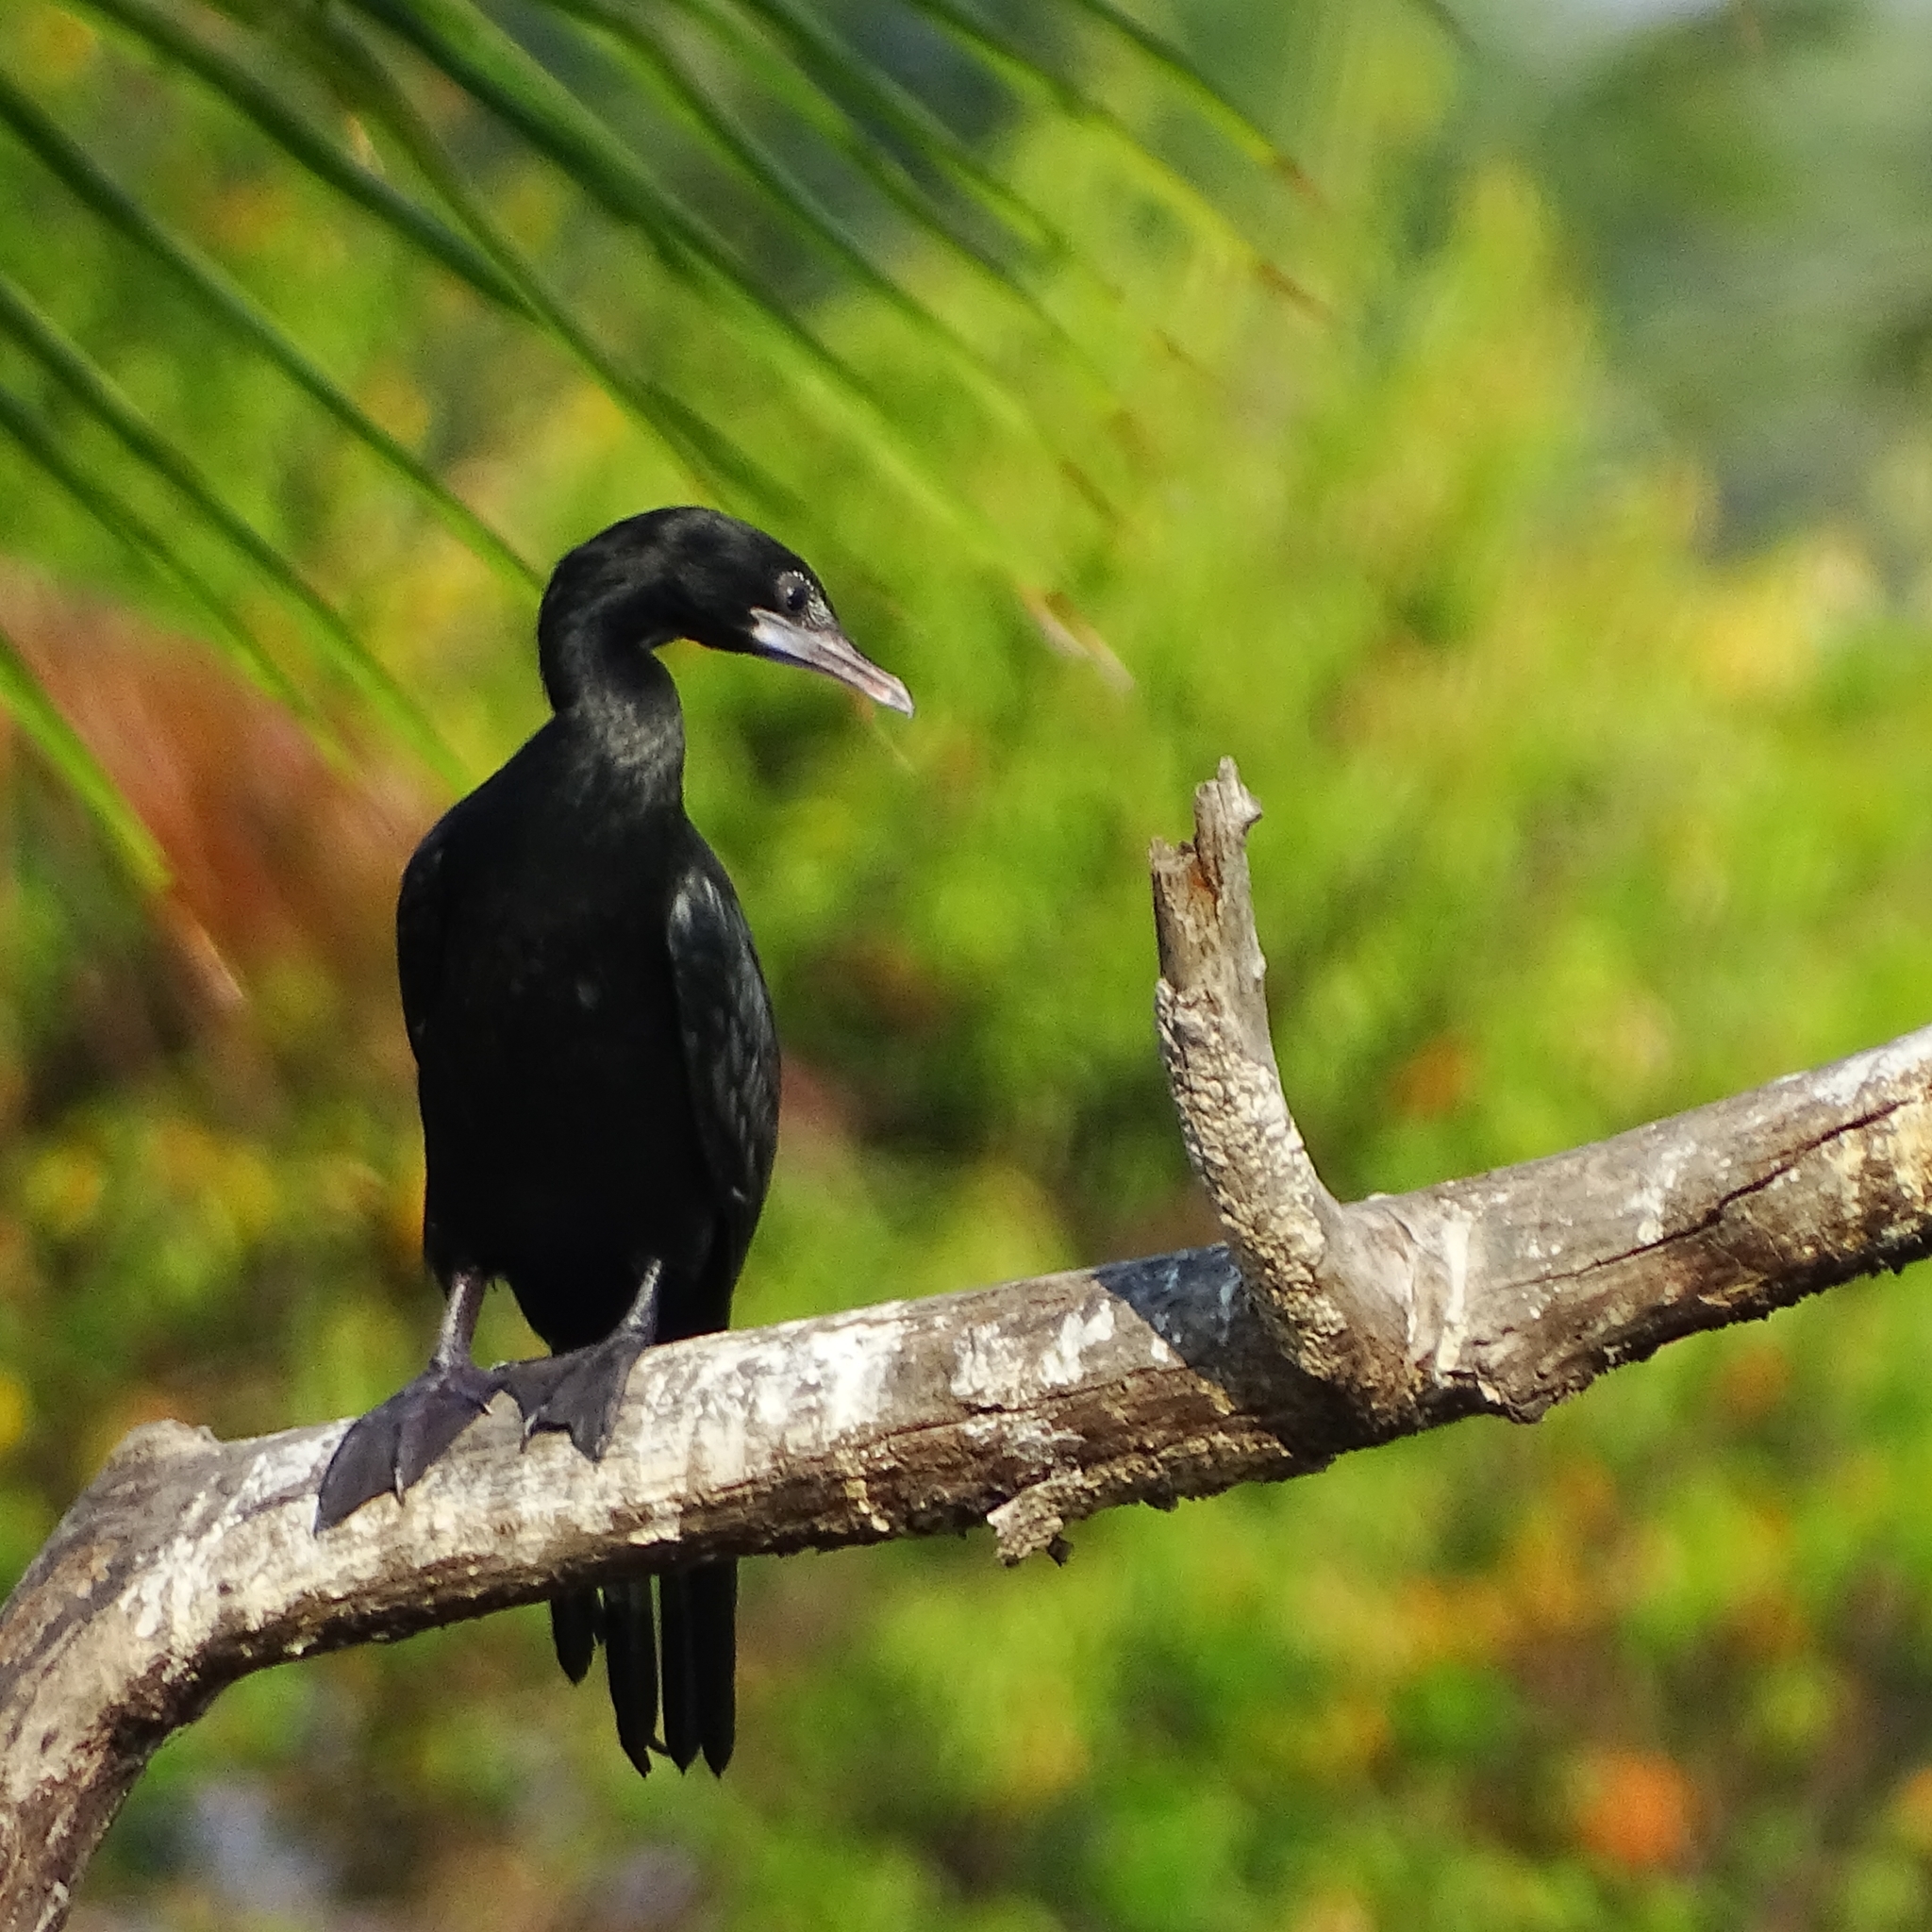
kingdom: Animalia
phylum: Chordata
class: Aves
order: Suliformes
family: Phalacrocoracidae
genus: Microcarbo
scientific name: Microcarbo niger
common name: Little cormorant
